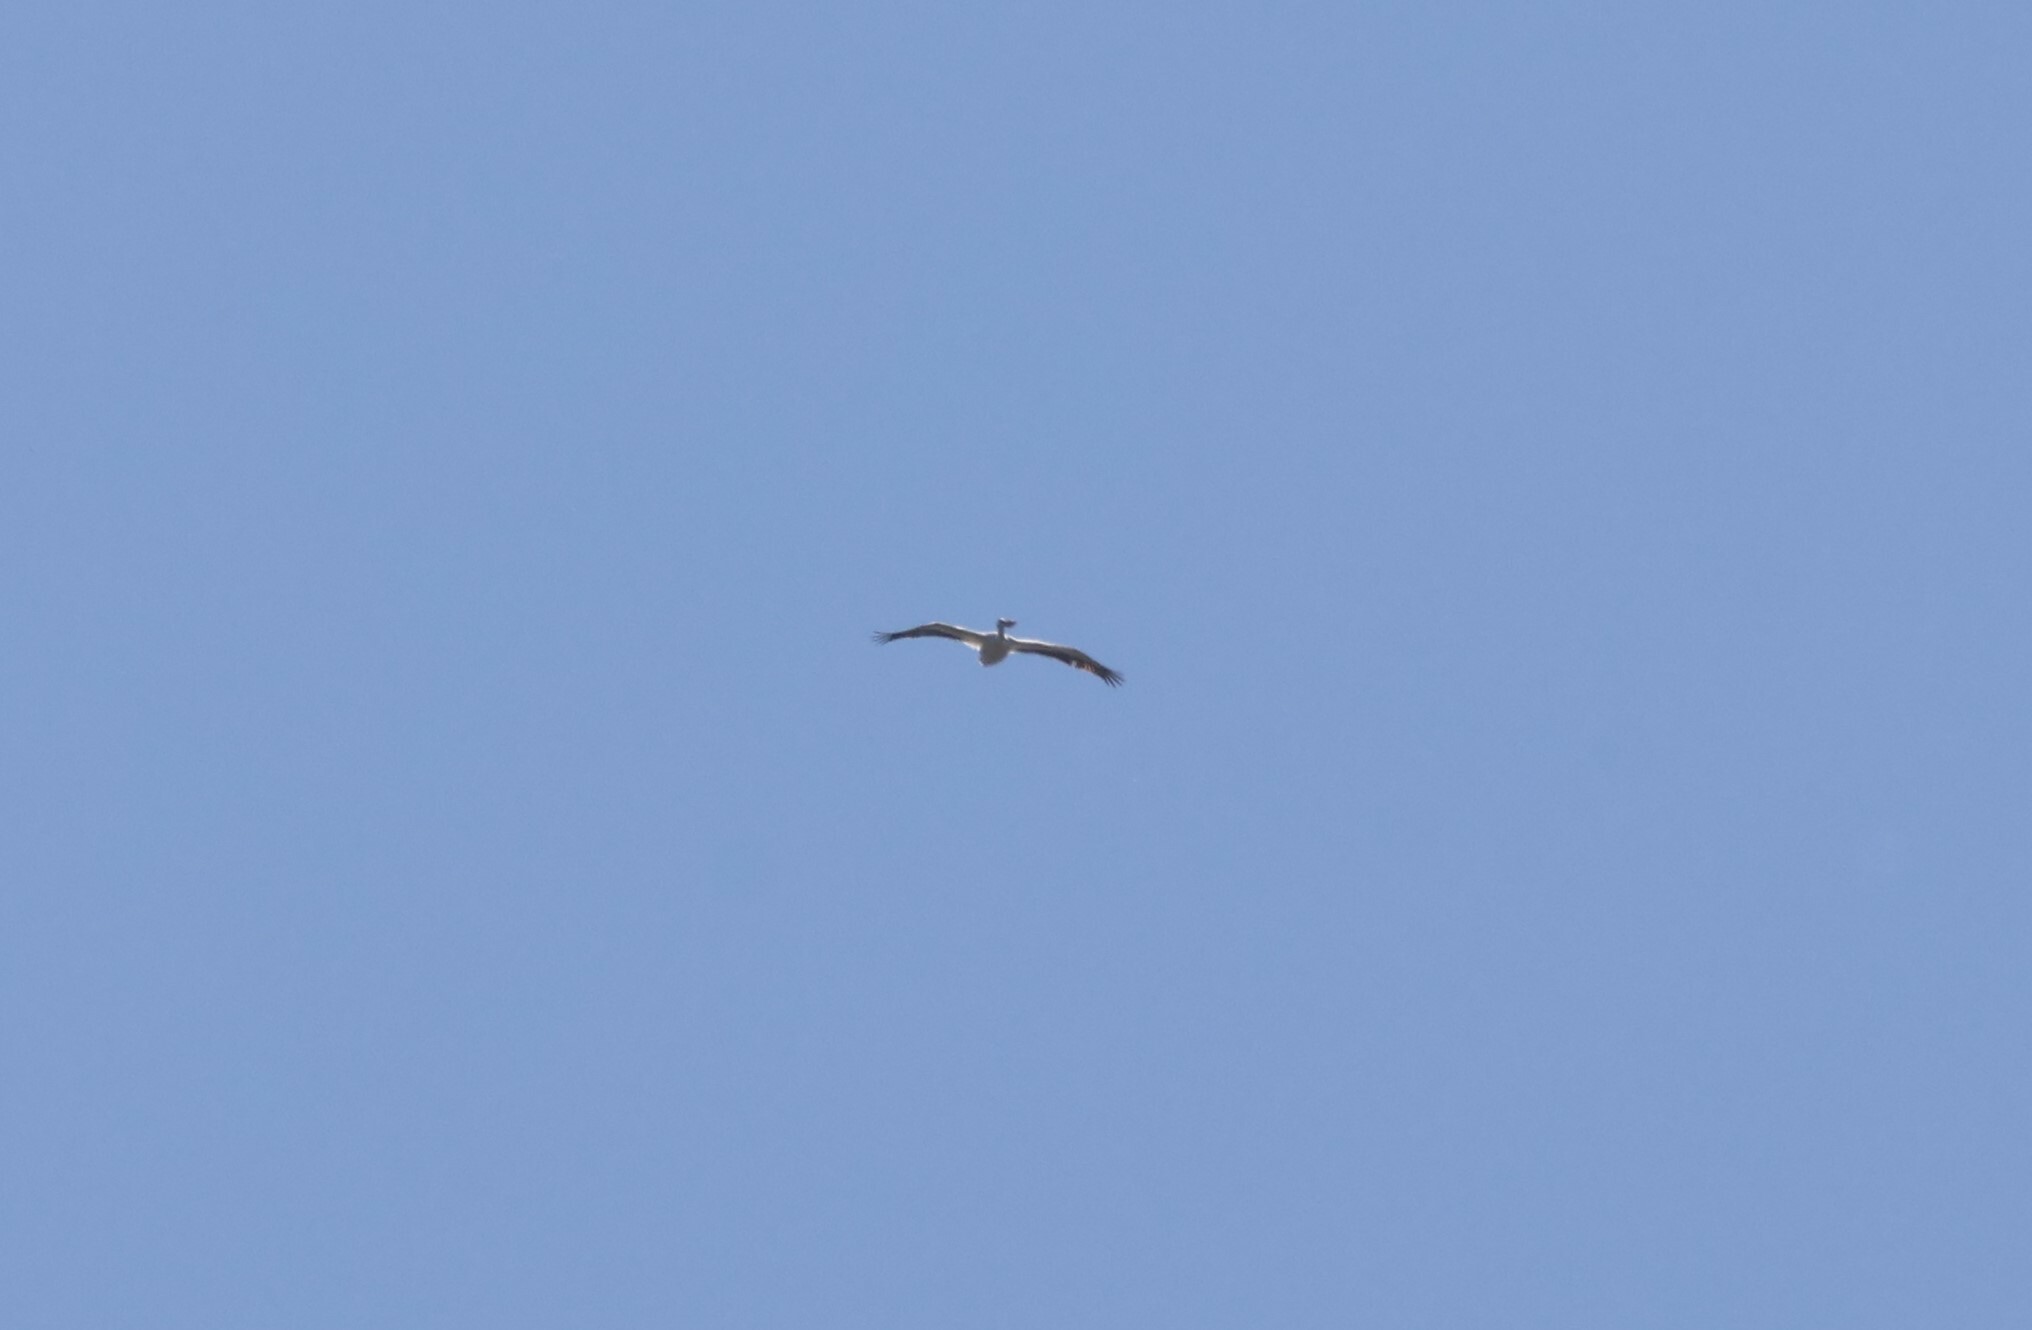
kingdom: Animalia
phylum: Chordata
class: Aves
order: Pelecaniformes
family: Pelecanidae
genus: Pelecanus
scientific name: Pelecanus erythrorhynchos
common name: American white pelican
